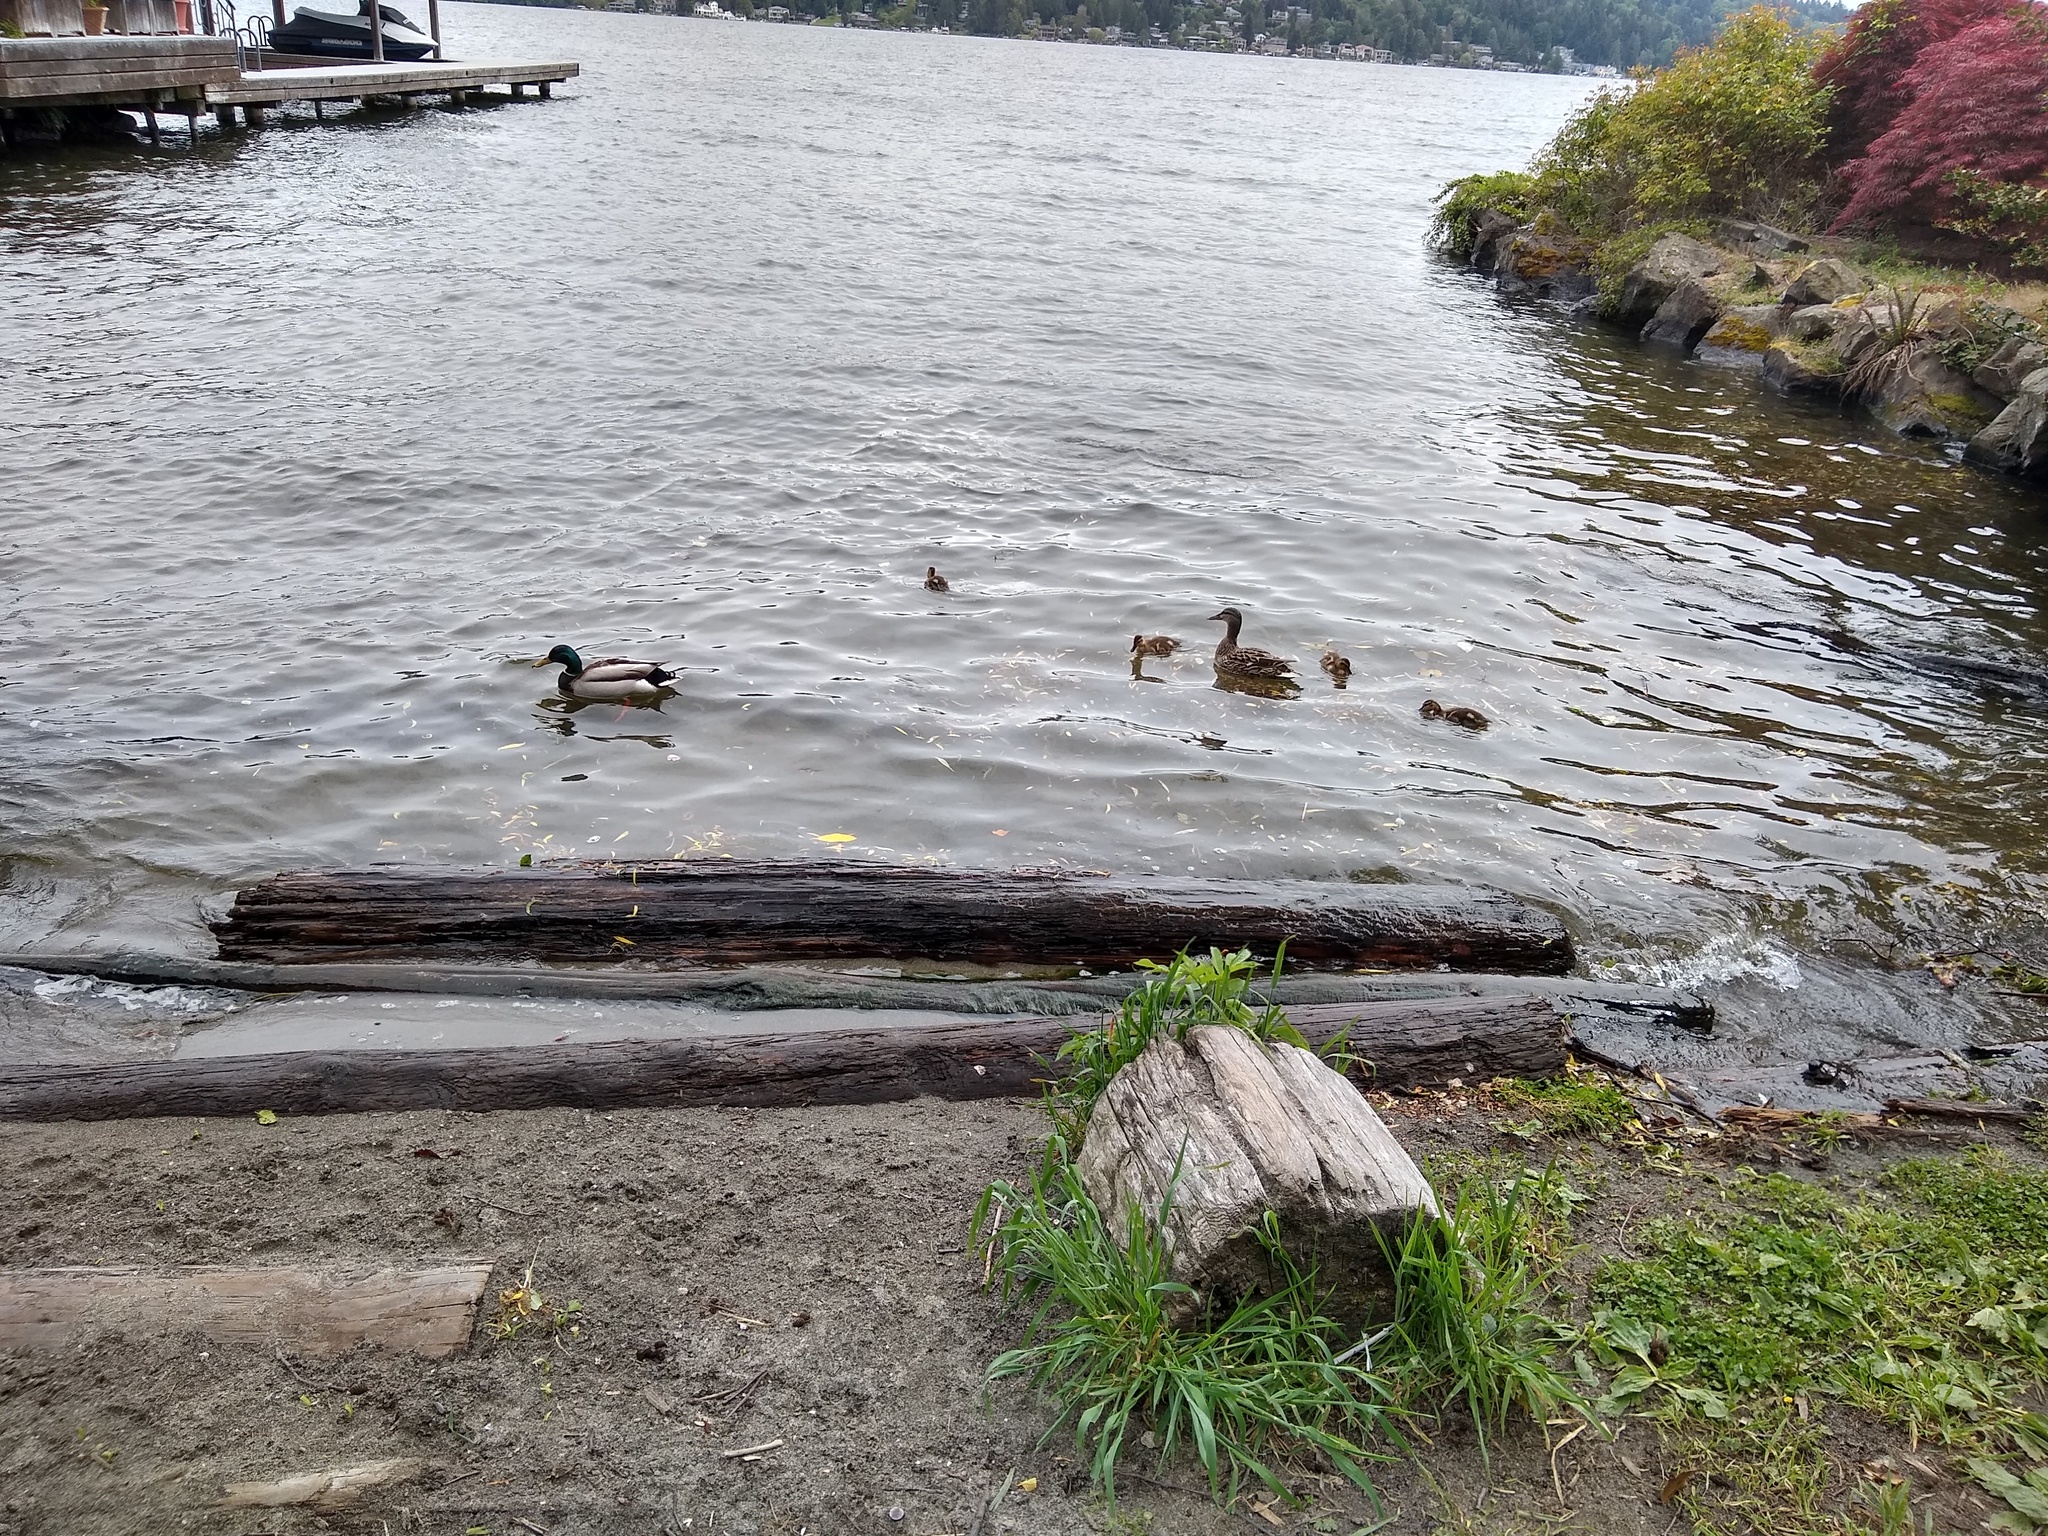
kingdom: Animalia
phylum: Chordata
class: Aves
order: Anseriformes
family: Anatidae
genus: Anas
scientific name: Anas platyrhynchos
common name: Mallard
